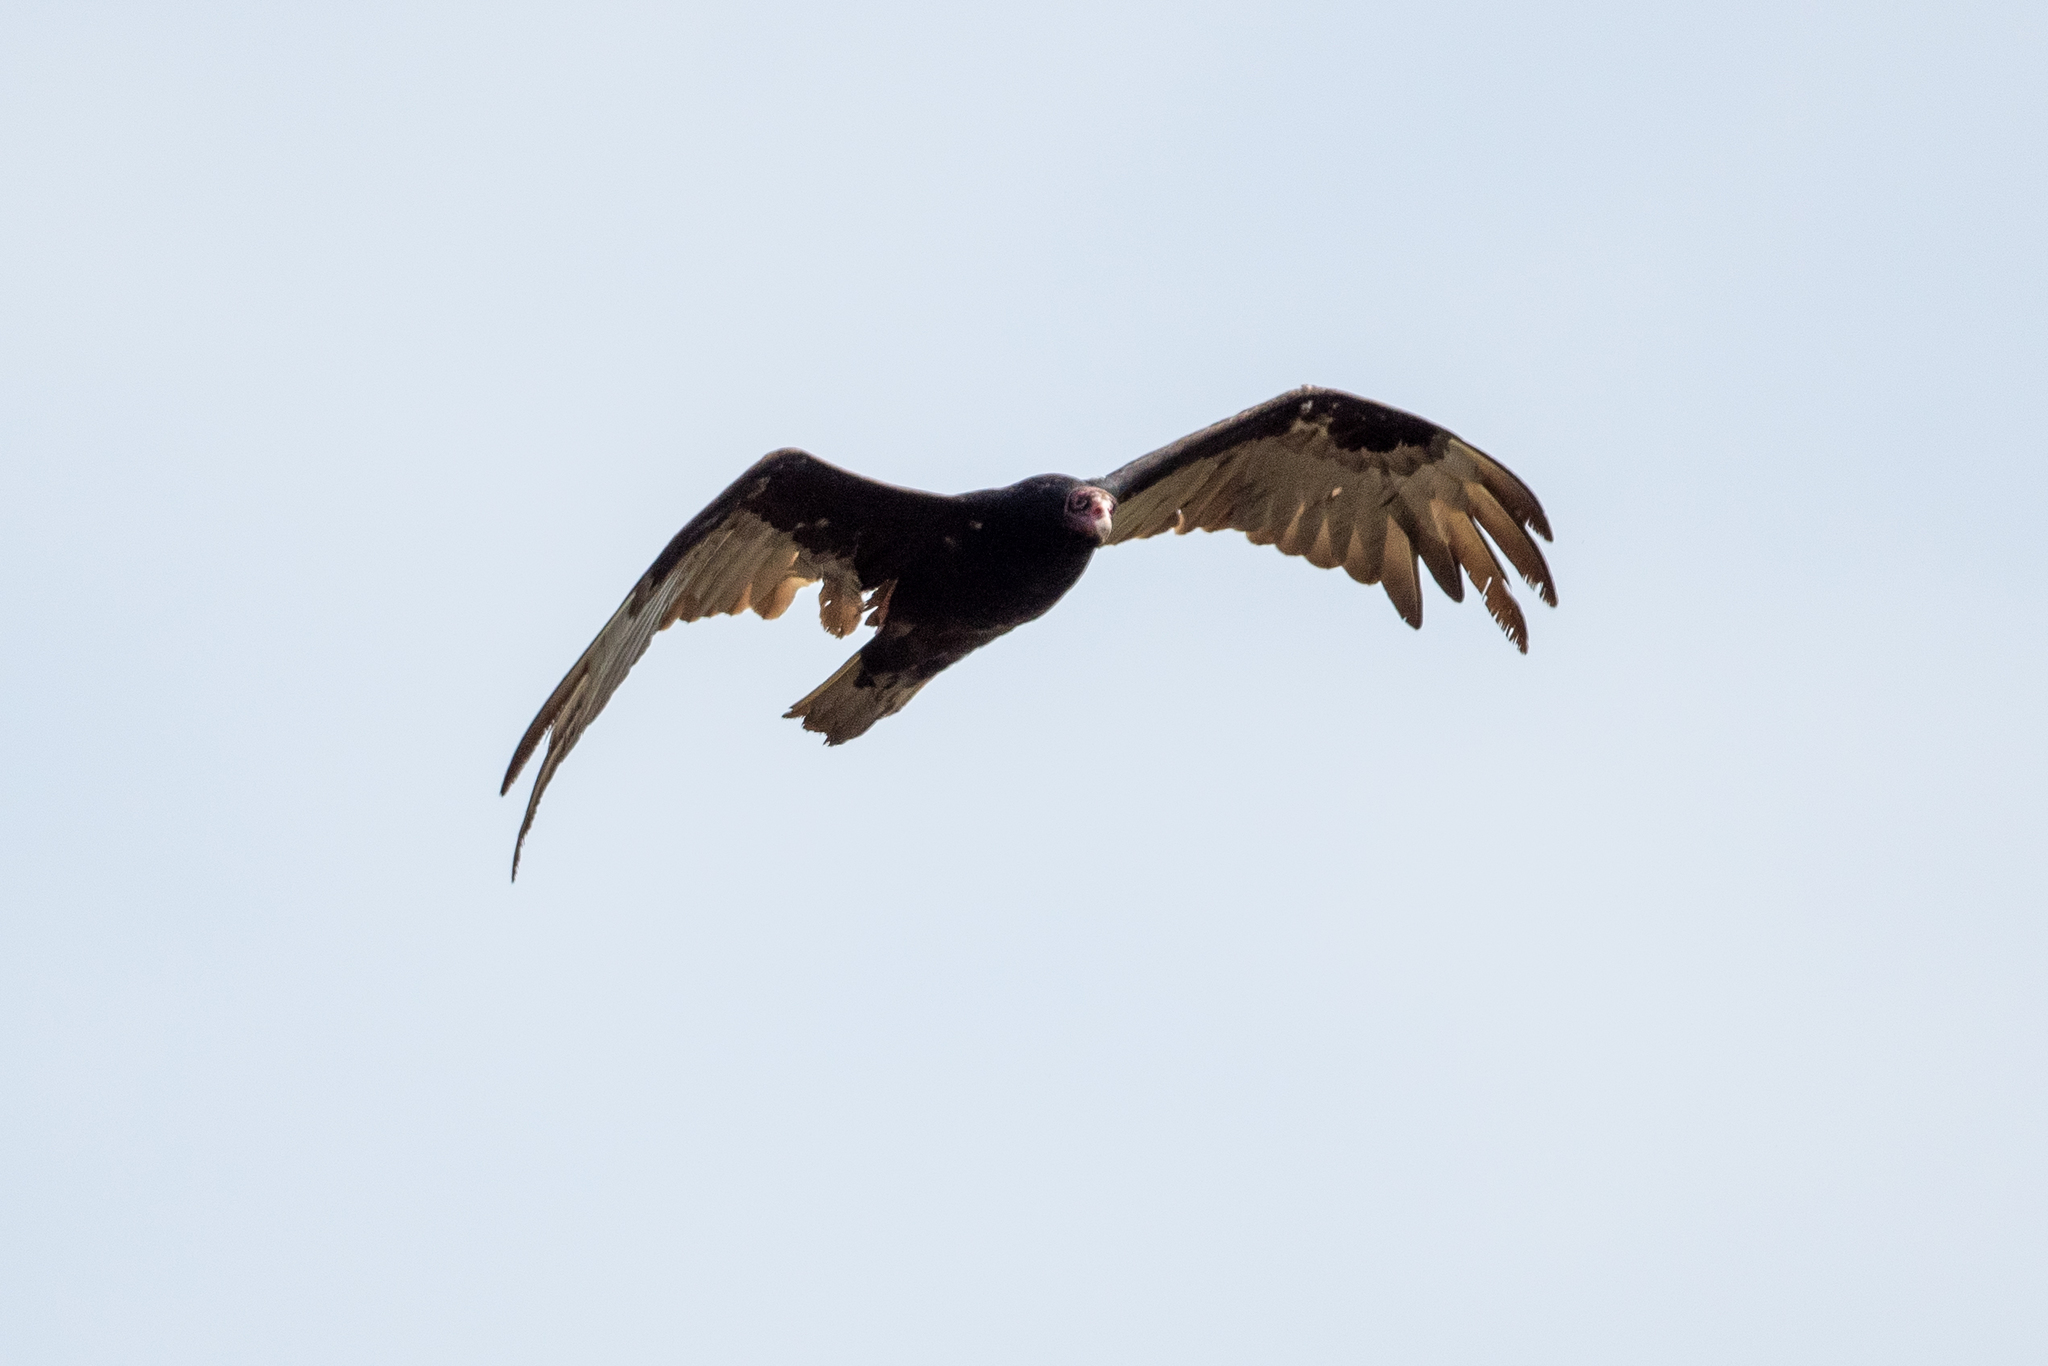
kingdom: Animalia
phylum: Chordata
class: Aves
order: Accipitriformes
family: Cathartidae
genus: Cathartes
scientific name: Cathartes aura
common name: Turkey vulture
